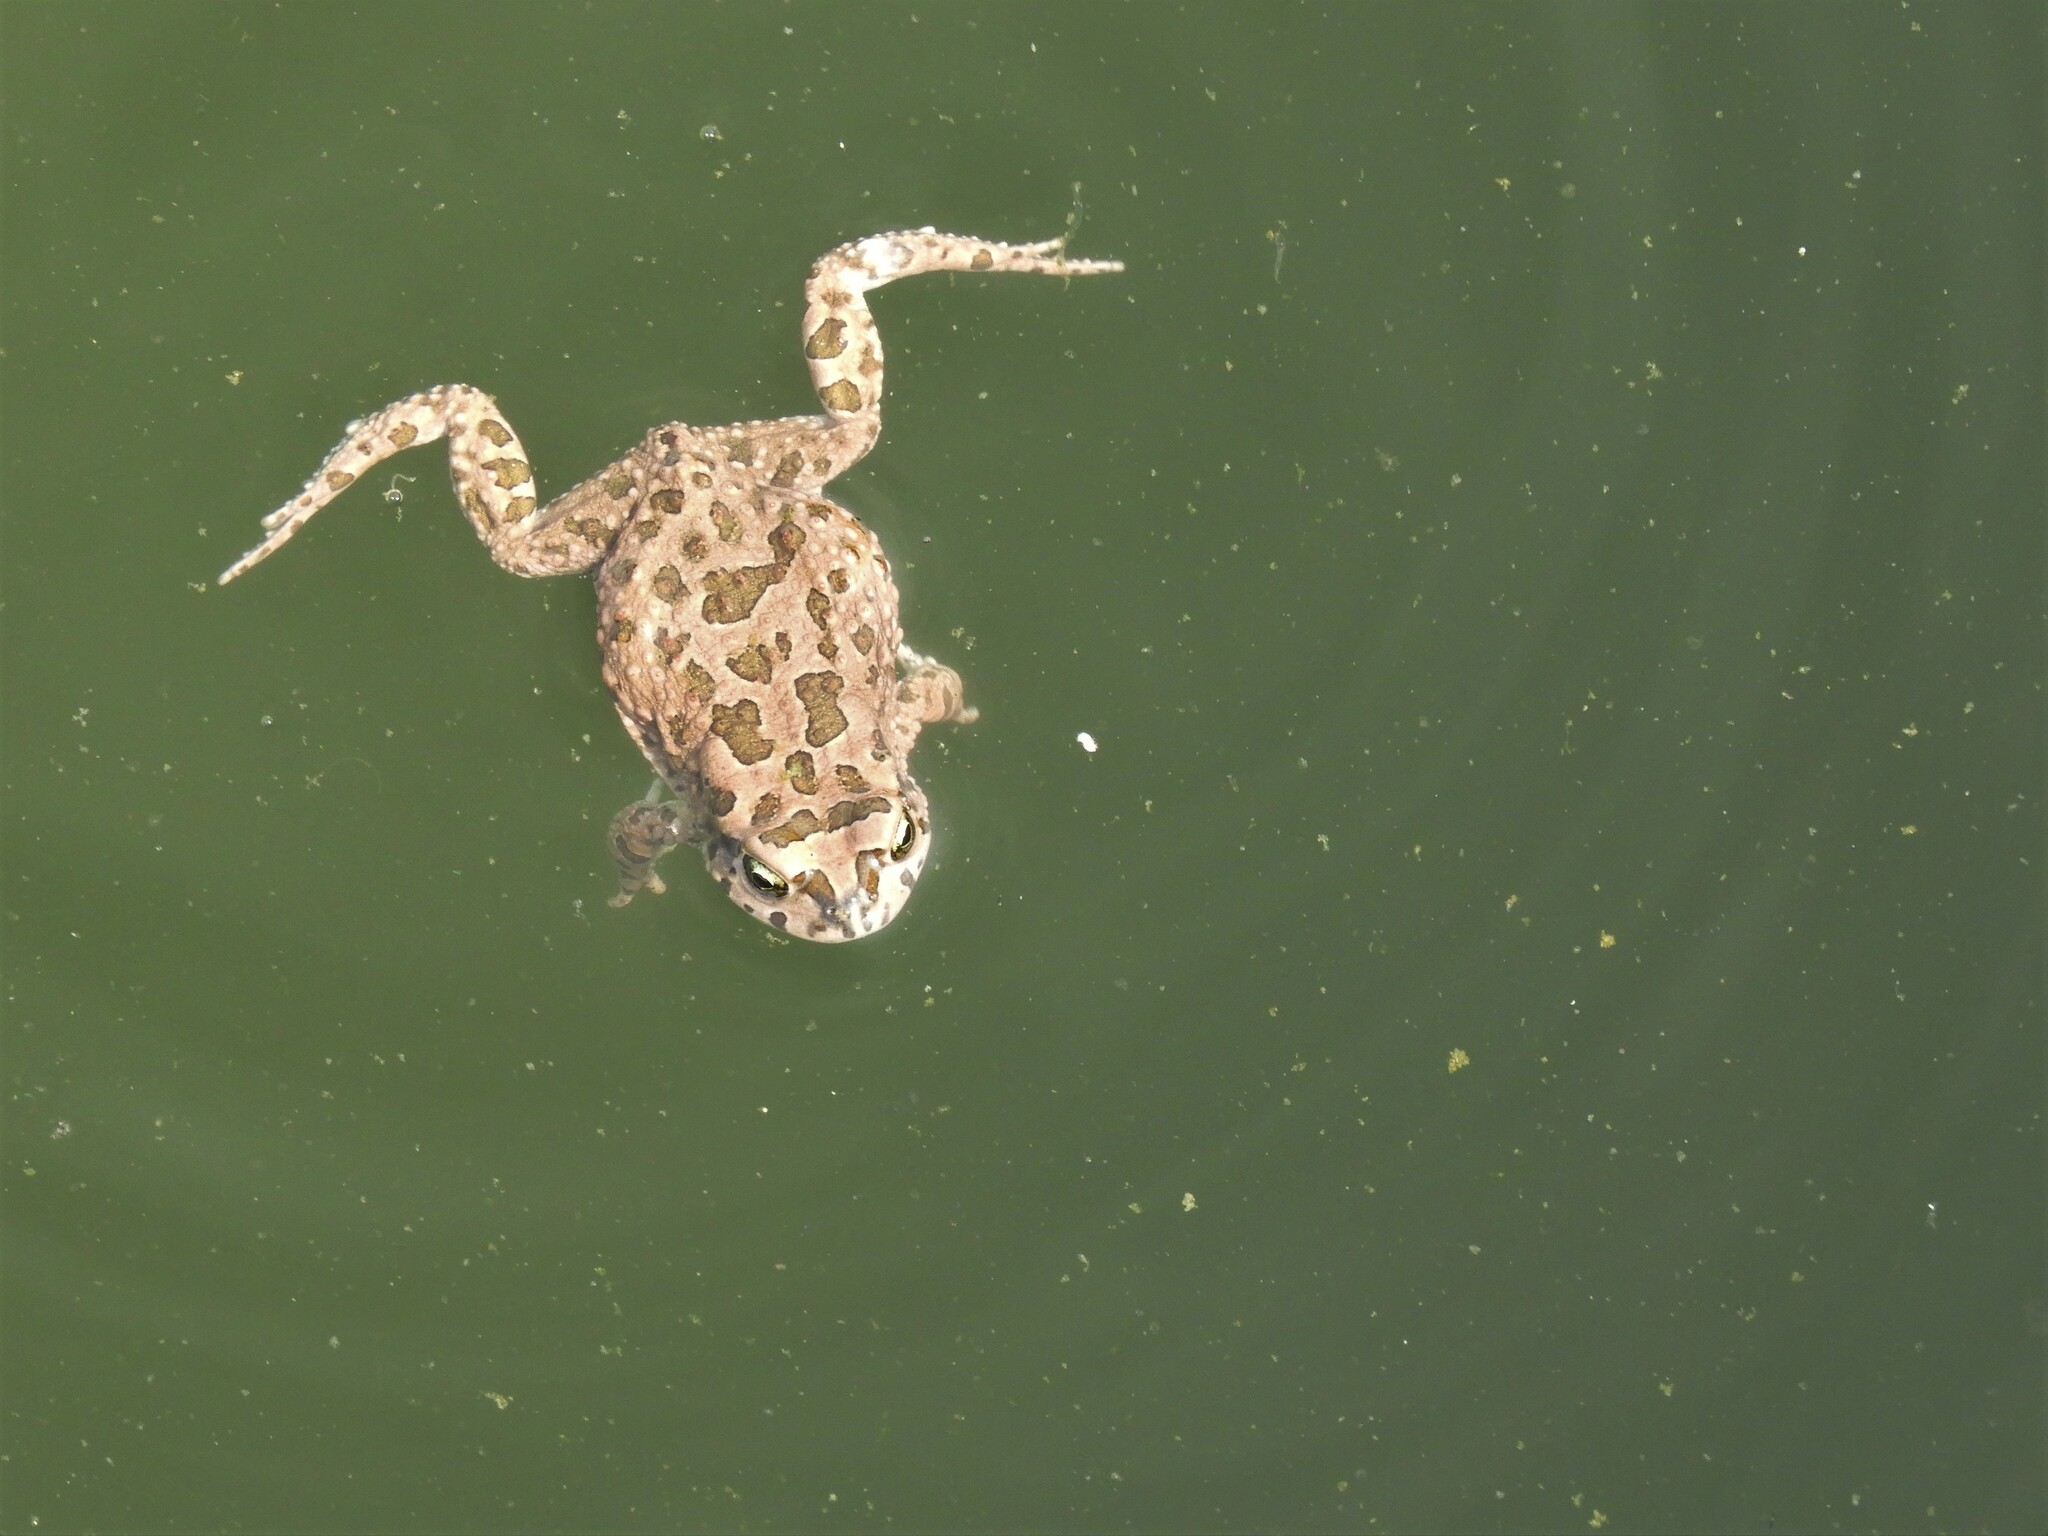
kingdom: Animalia
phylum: Chordata
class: Amphibia
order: Anura
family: Bufonidae
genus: Vandijkophrynus
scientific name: Vandijkophrynus gariepensis
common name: Gariep toad
